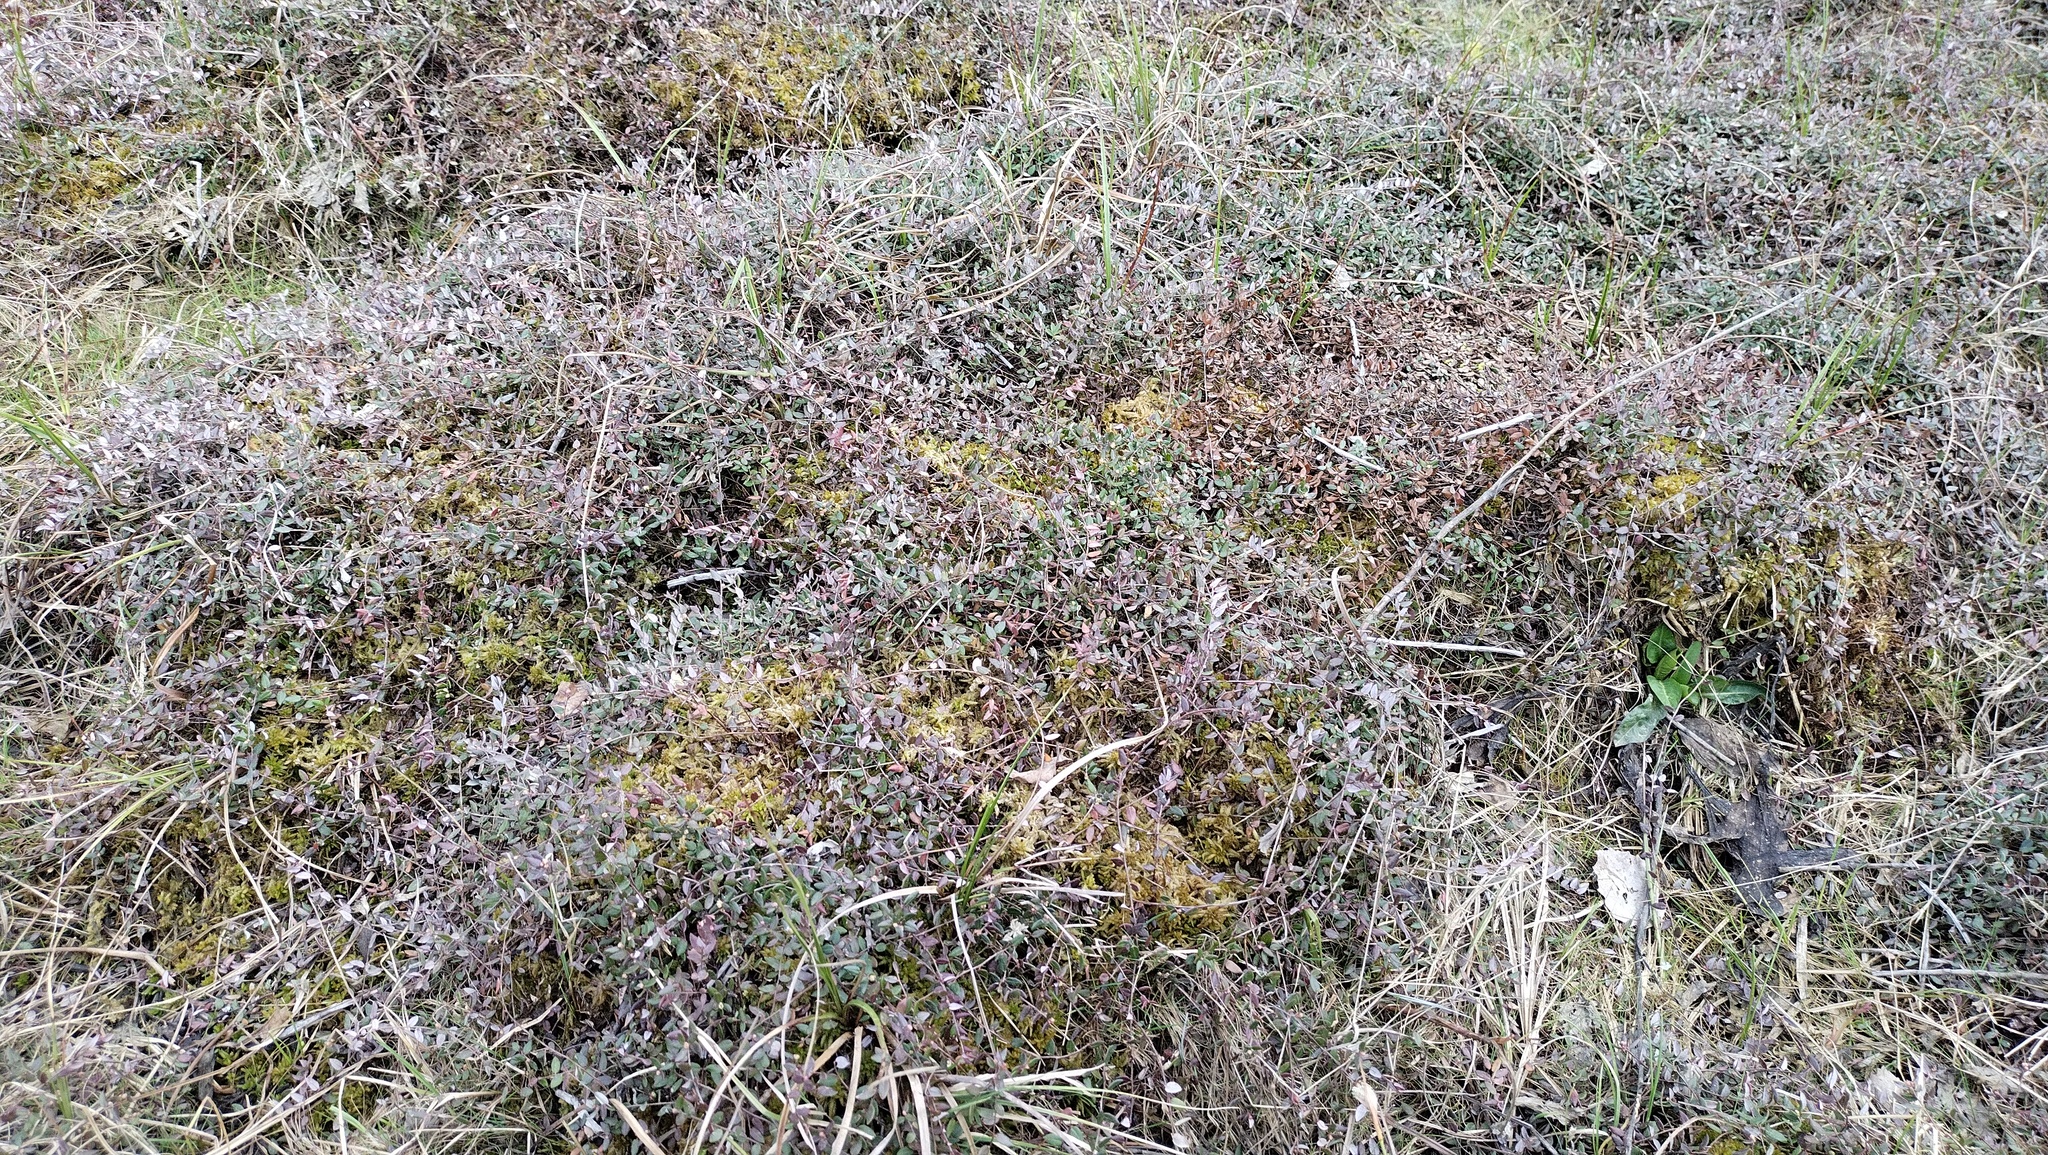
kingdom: Plantae
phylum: Tracheophyta
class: Magnoliopsida
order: Ericales
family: Ericaceae
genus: Vaccinium
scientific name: Vaccinium oxycoccos
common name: Cranberry
